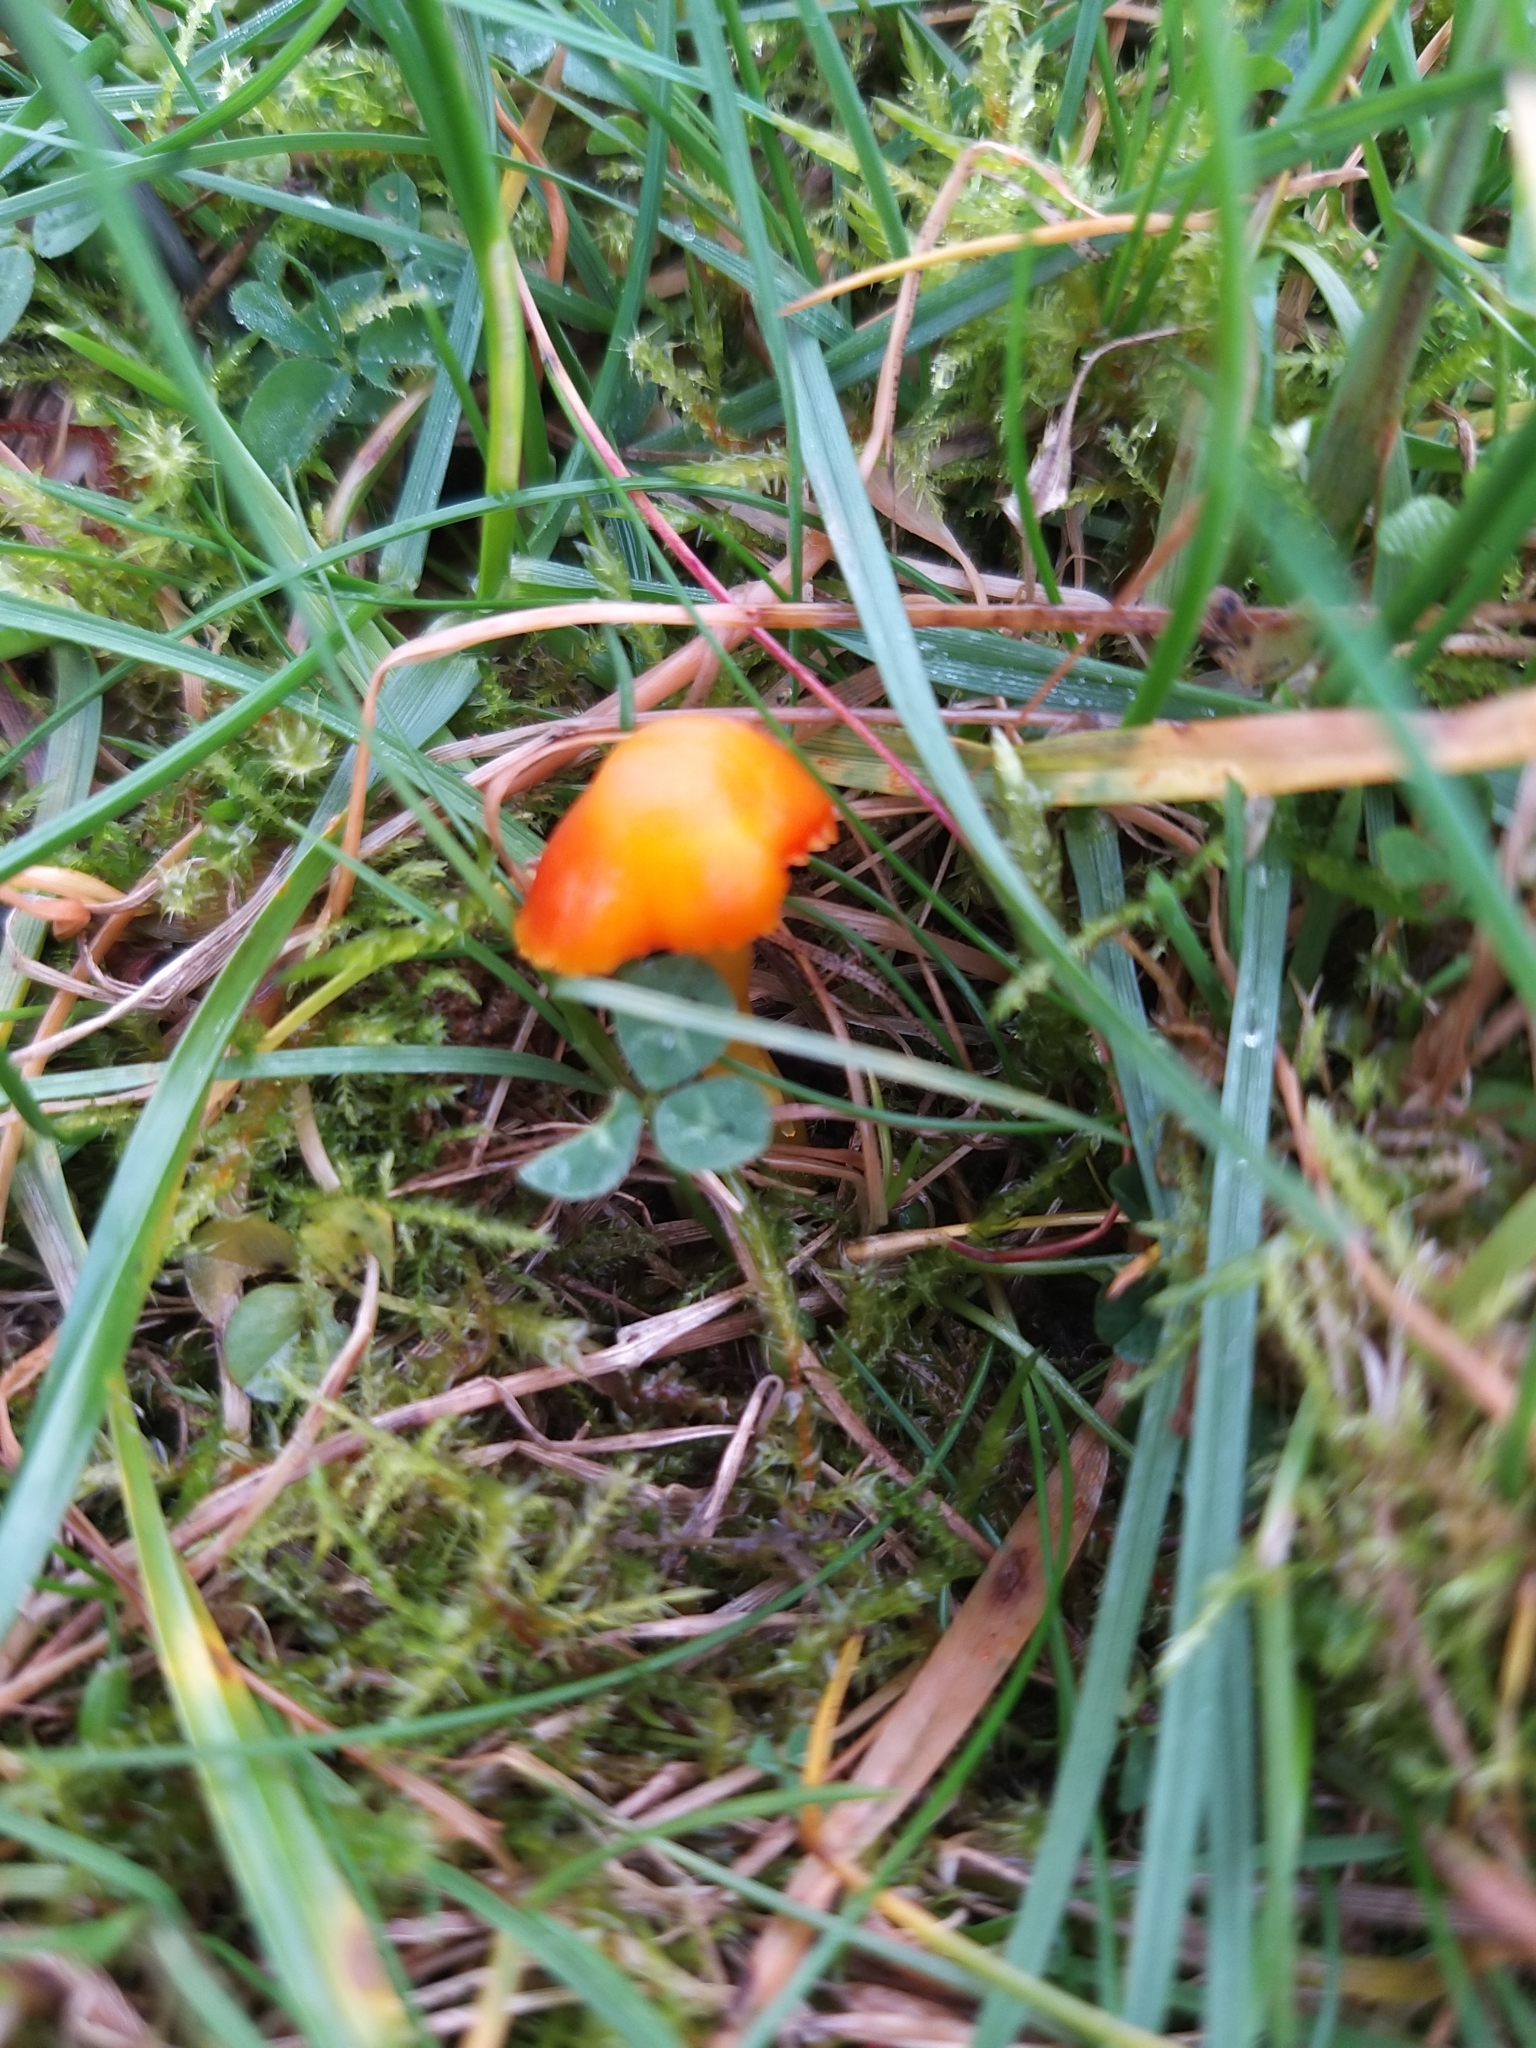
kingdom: Fungi
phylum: Basidiomycota
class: Agaricomycetes
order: Agaricales
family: Hygrophoraceae
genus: Hygrocybe
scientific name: Hygrocybe insipida
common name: Spangle waxcap
